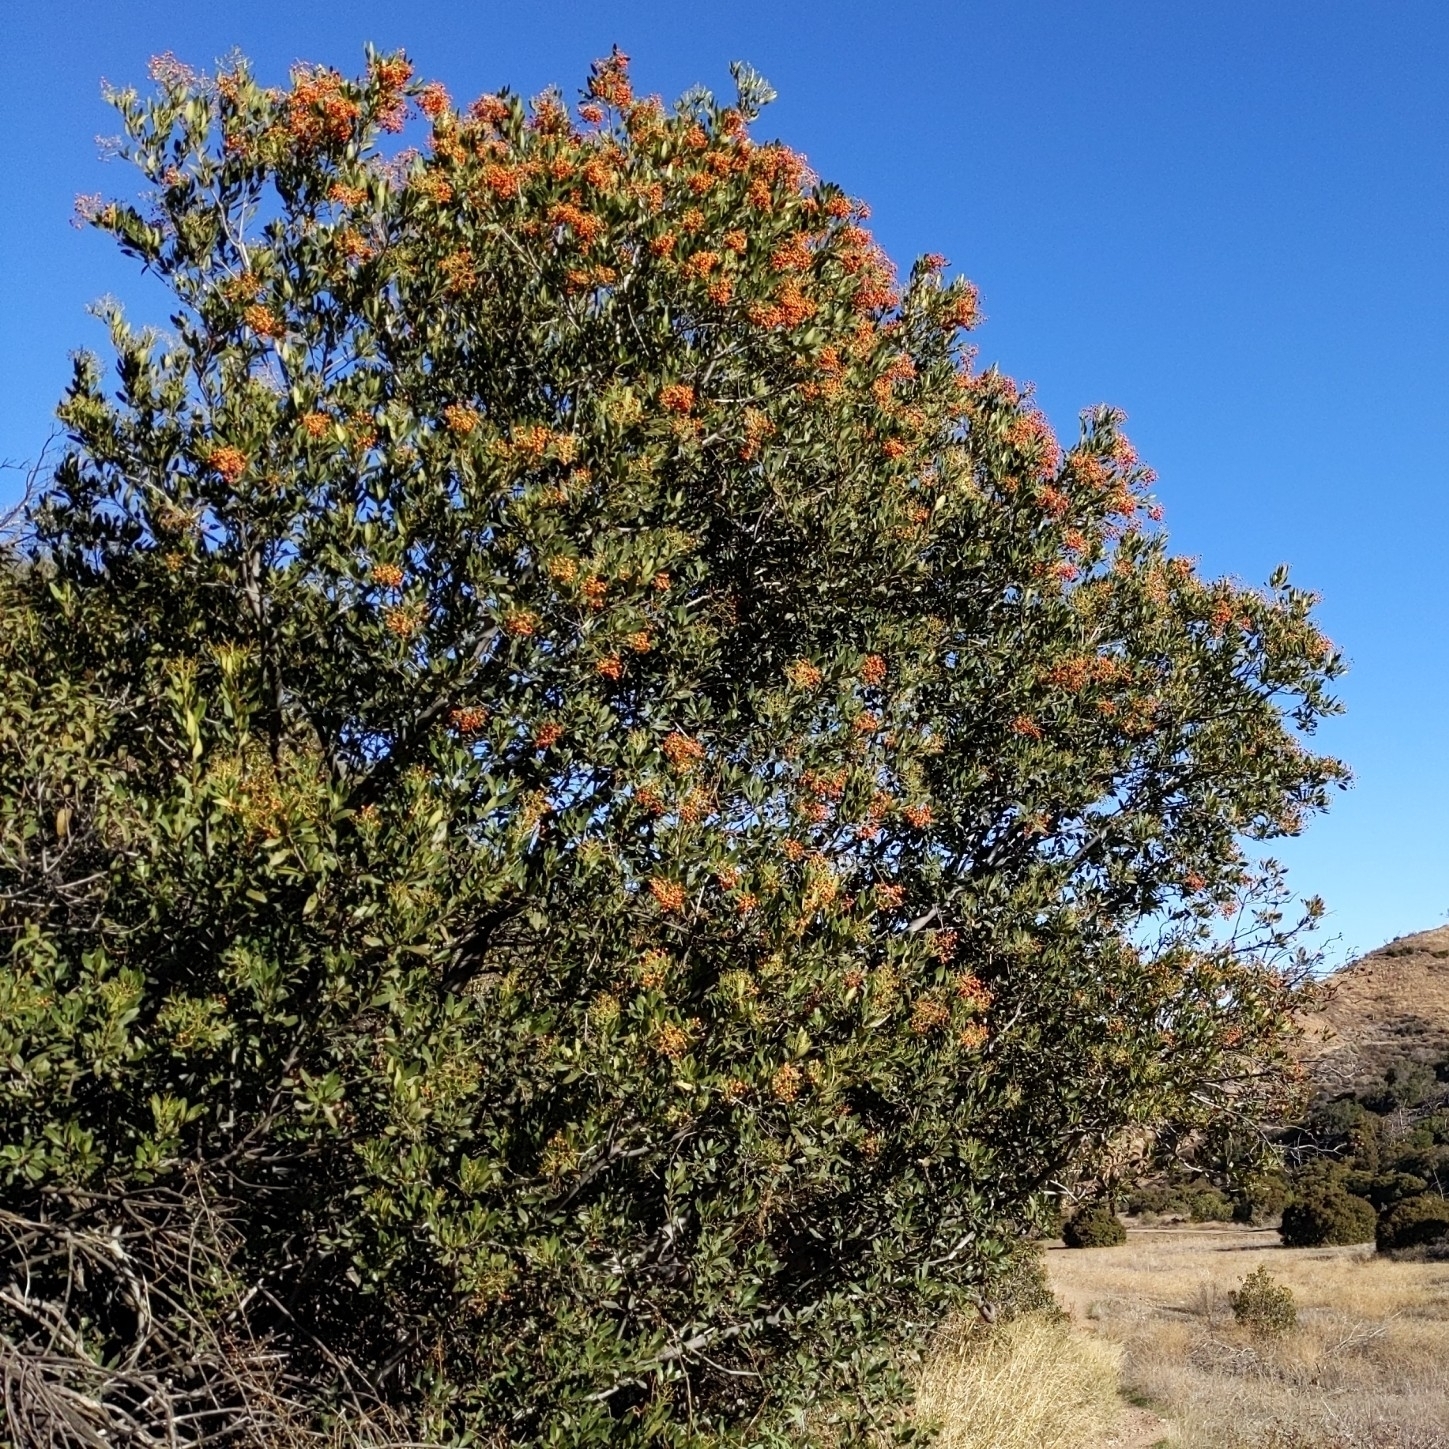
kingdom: Plantae
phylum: Tracheophyta
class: Magnoliopsida
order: Rosales
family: Rosaceae
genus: Heteromeles
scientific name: Heteromeles arbutifolia
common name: California-holly
